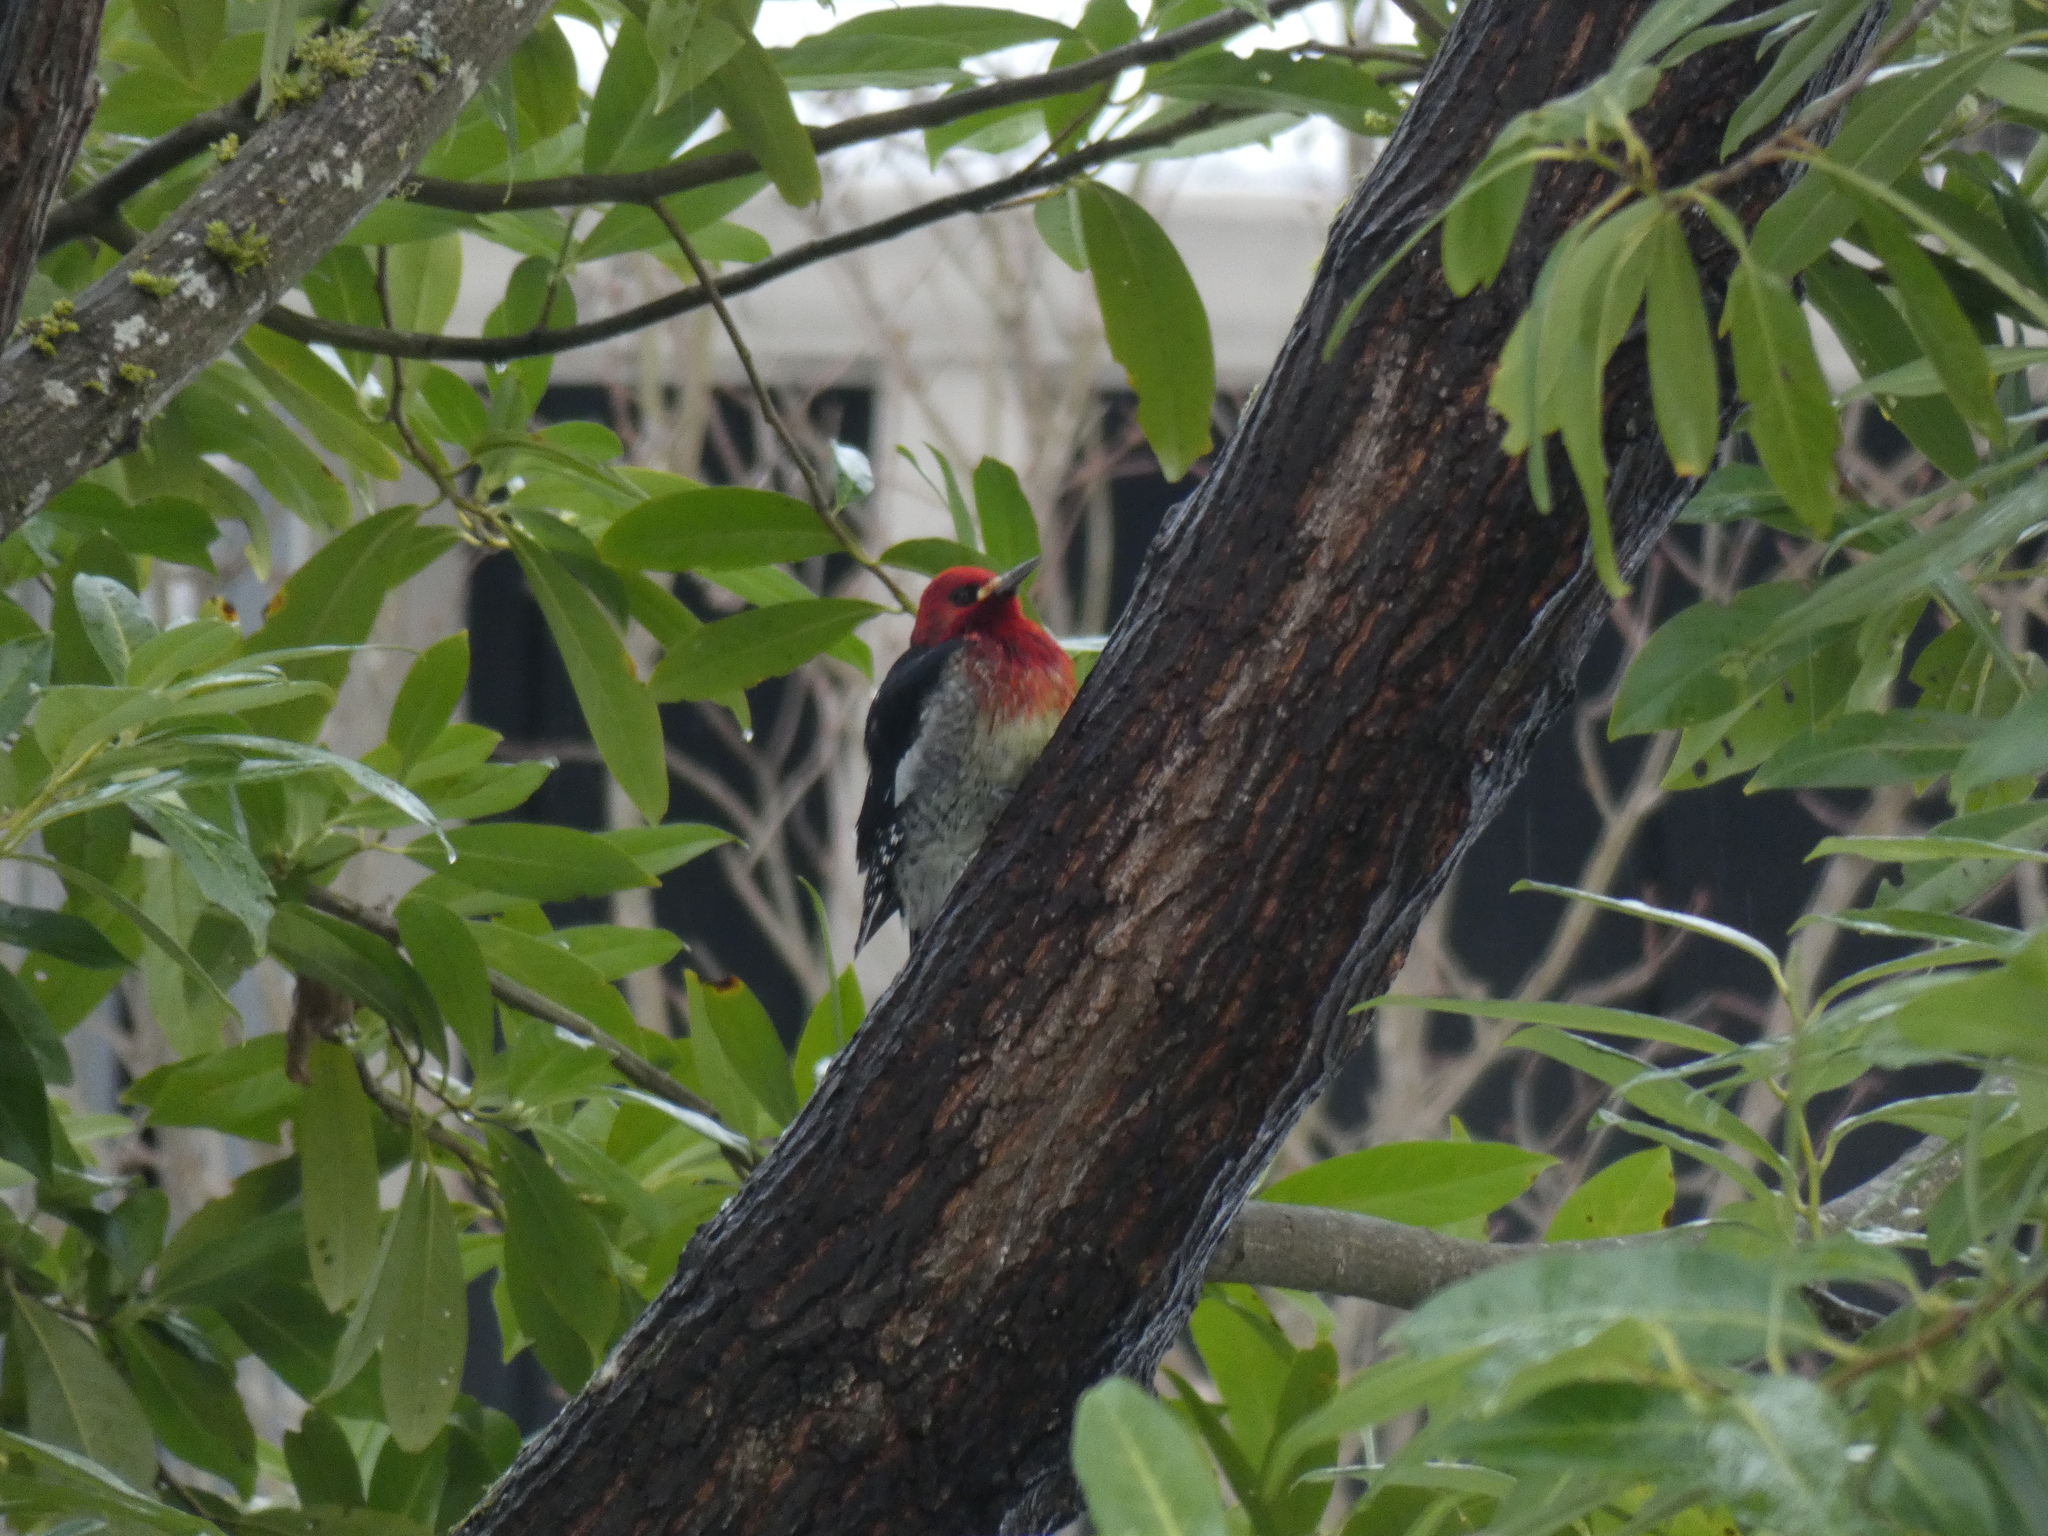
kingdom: Animalia
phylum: Chordata
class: Aves
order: Piciformes
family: Picidae
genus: Sphyrapicus
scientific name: Sphyrapicus ruber
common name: Red-breasted sapsucker
